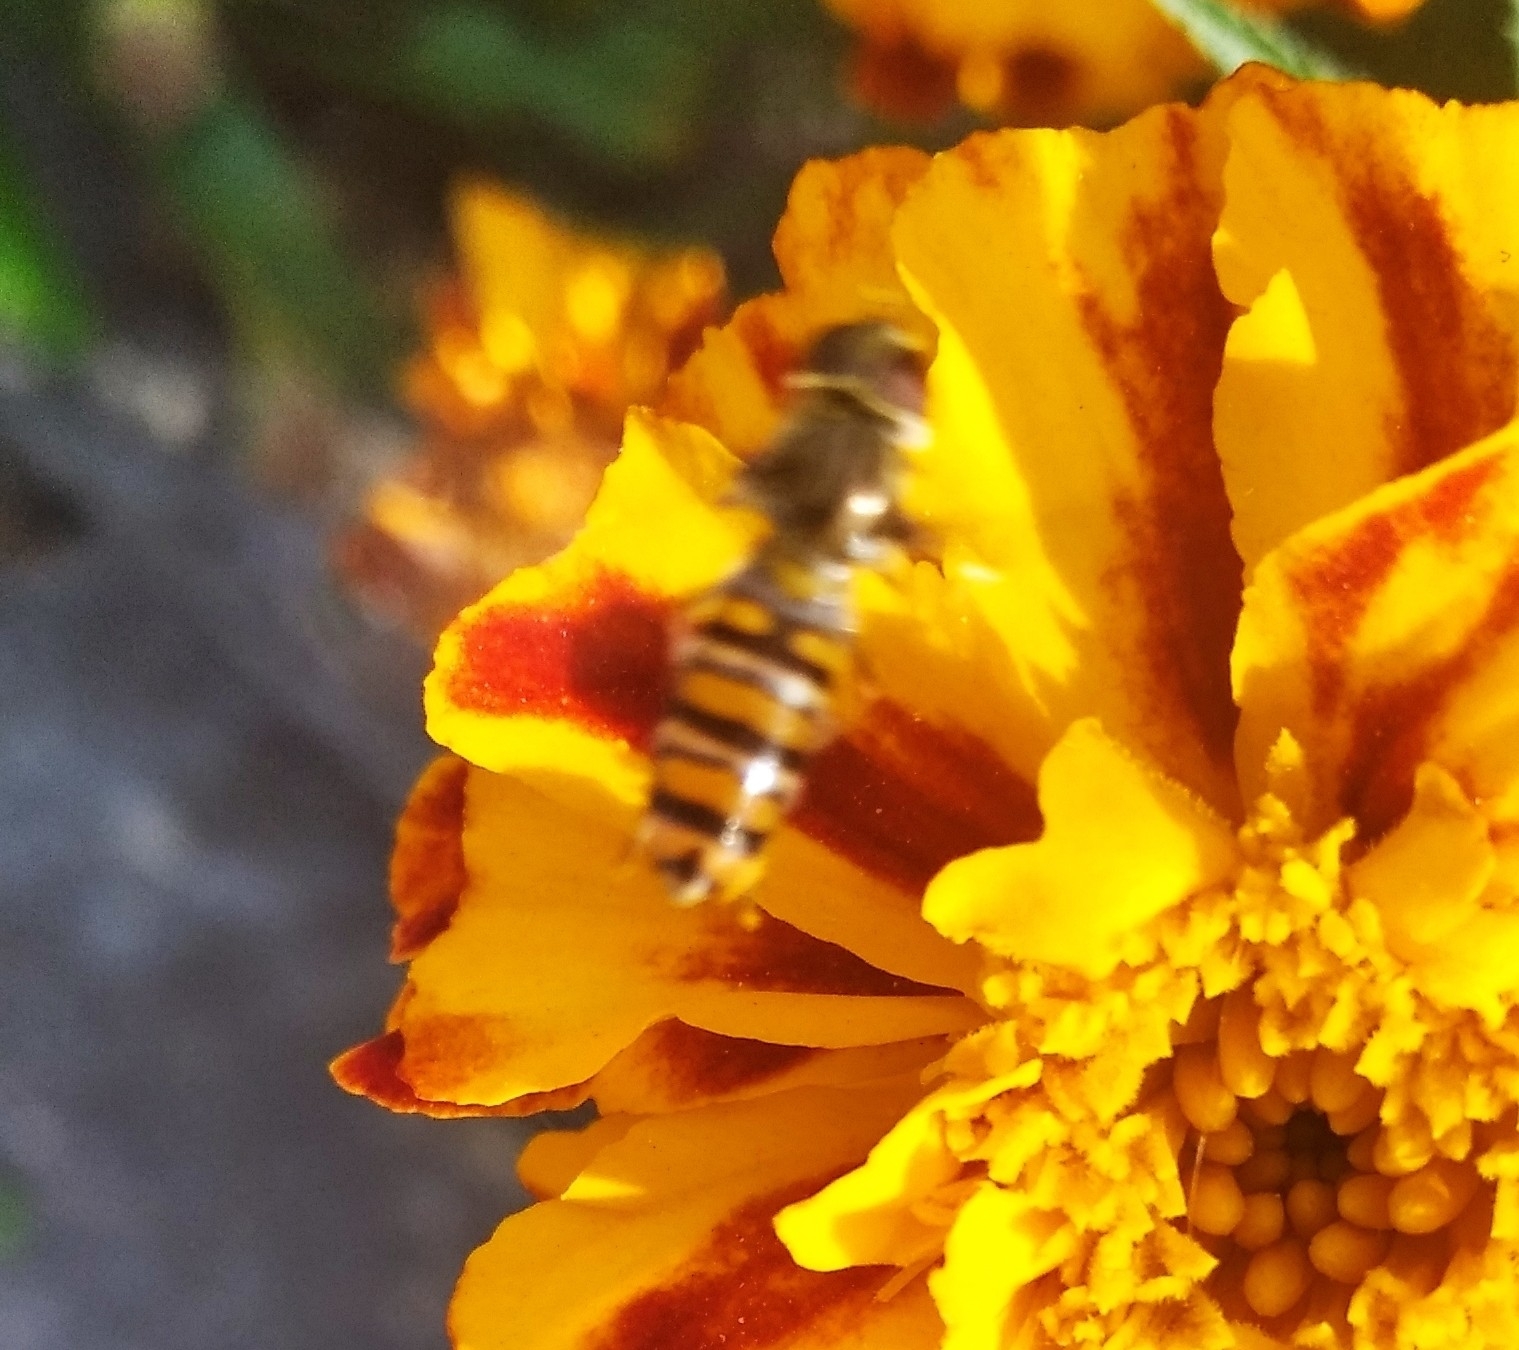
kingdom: Animalia
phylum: Arthropoda
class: Insecta
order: Diptera
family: Syrphidae
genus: Episyrphus
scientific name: Episyrphus balteatus
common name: Marmalade hoverfly
